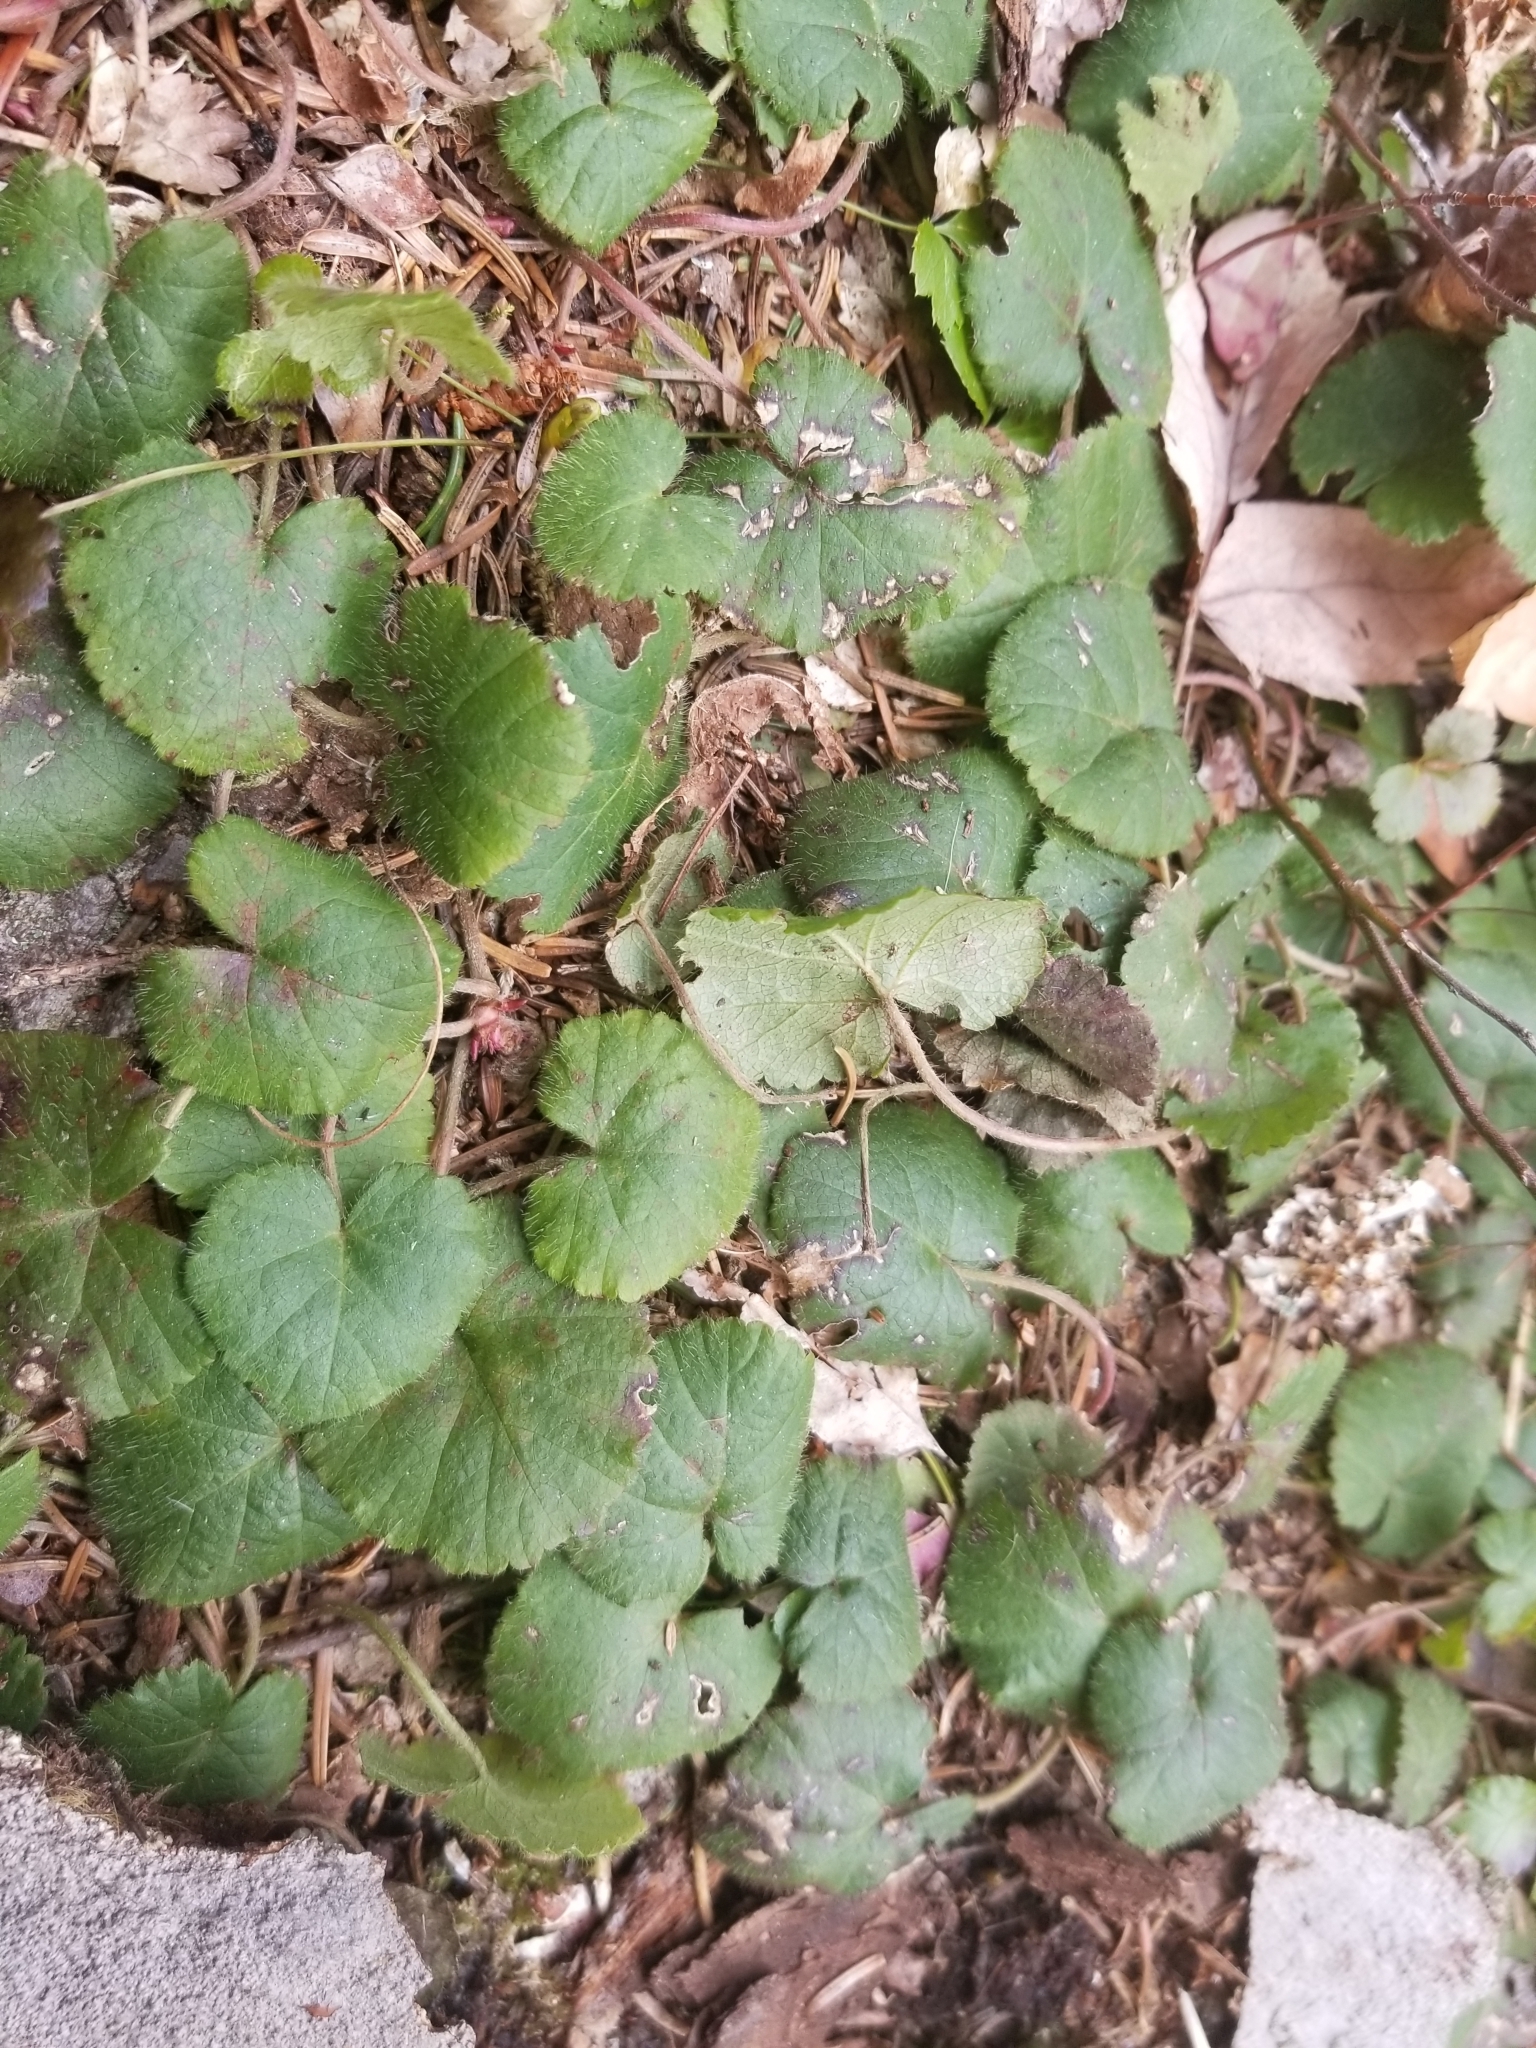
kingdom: Plantae
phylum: Tracheophyta
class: Magnoliopsida
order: Rosales
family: Rosaceae
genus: Dalibarda
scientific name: Dalibarda repens
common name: Dewdrop
